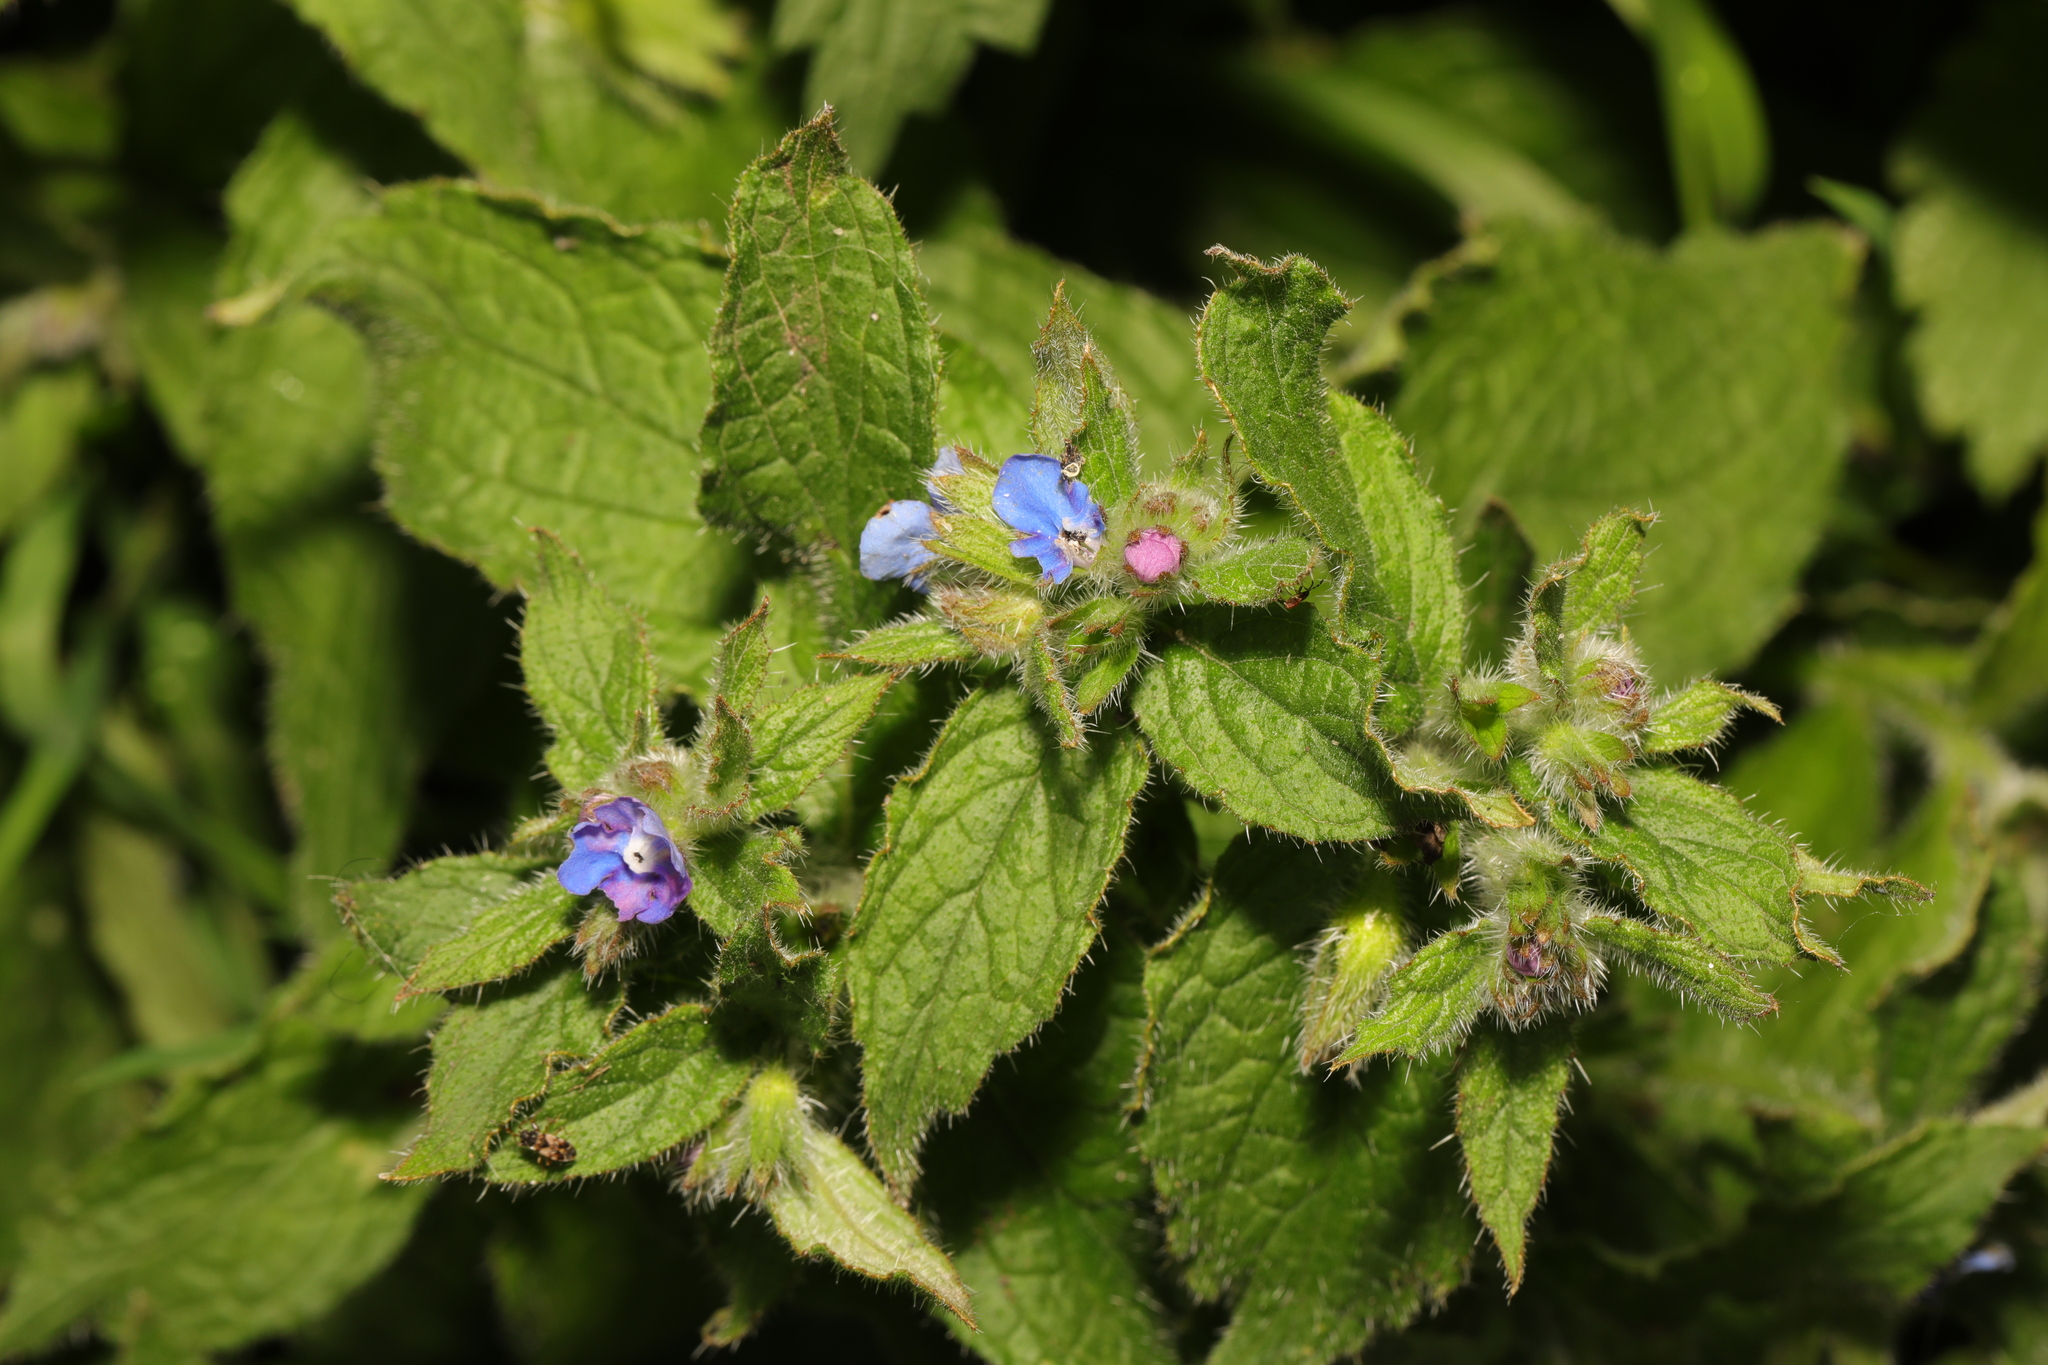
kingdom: Plantae
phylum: Tracheophyta
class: Magnoliopsida
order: Boraginales
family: Boraginaceae
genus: Pentaglottis
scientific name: Pentaglottis sempervirens
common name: Green alkanet
